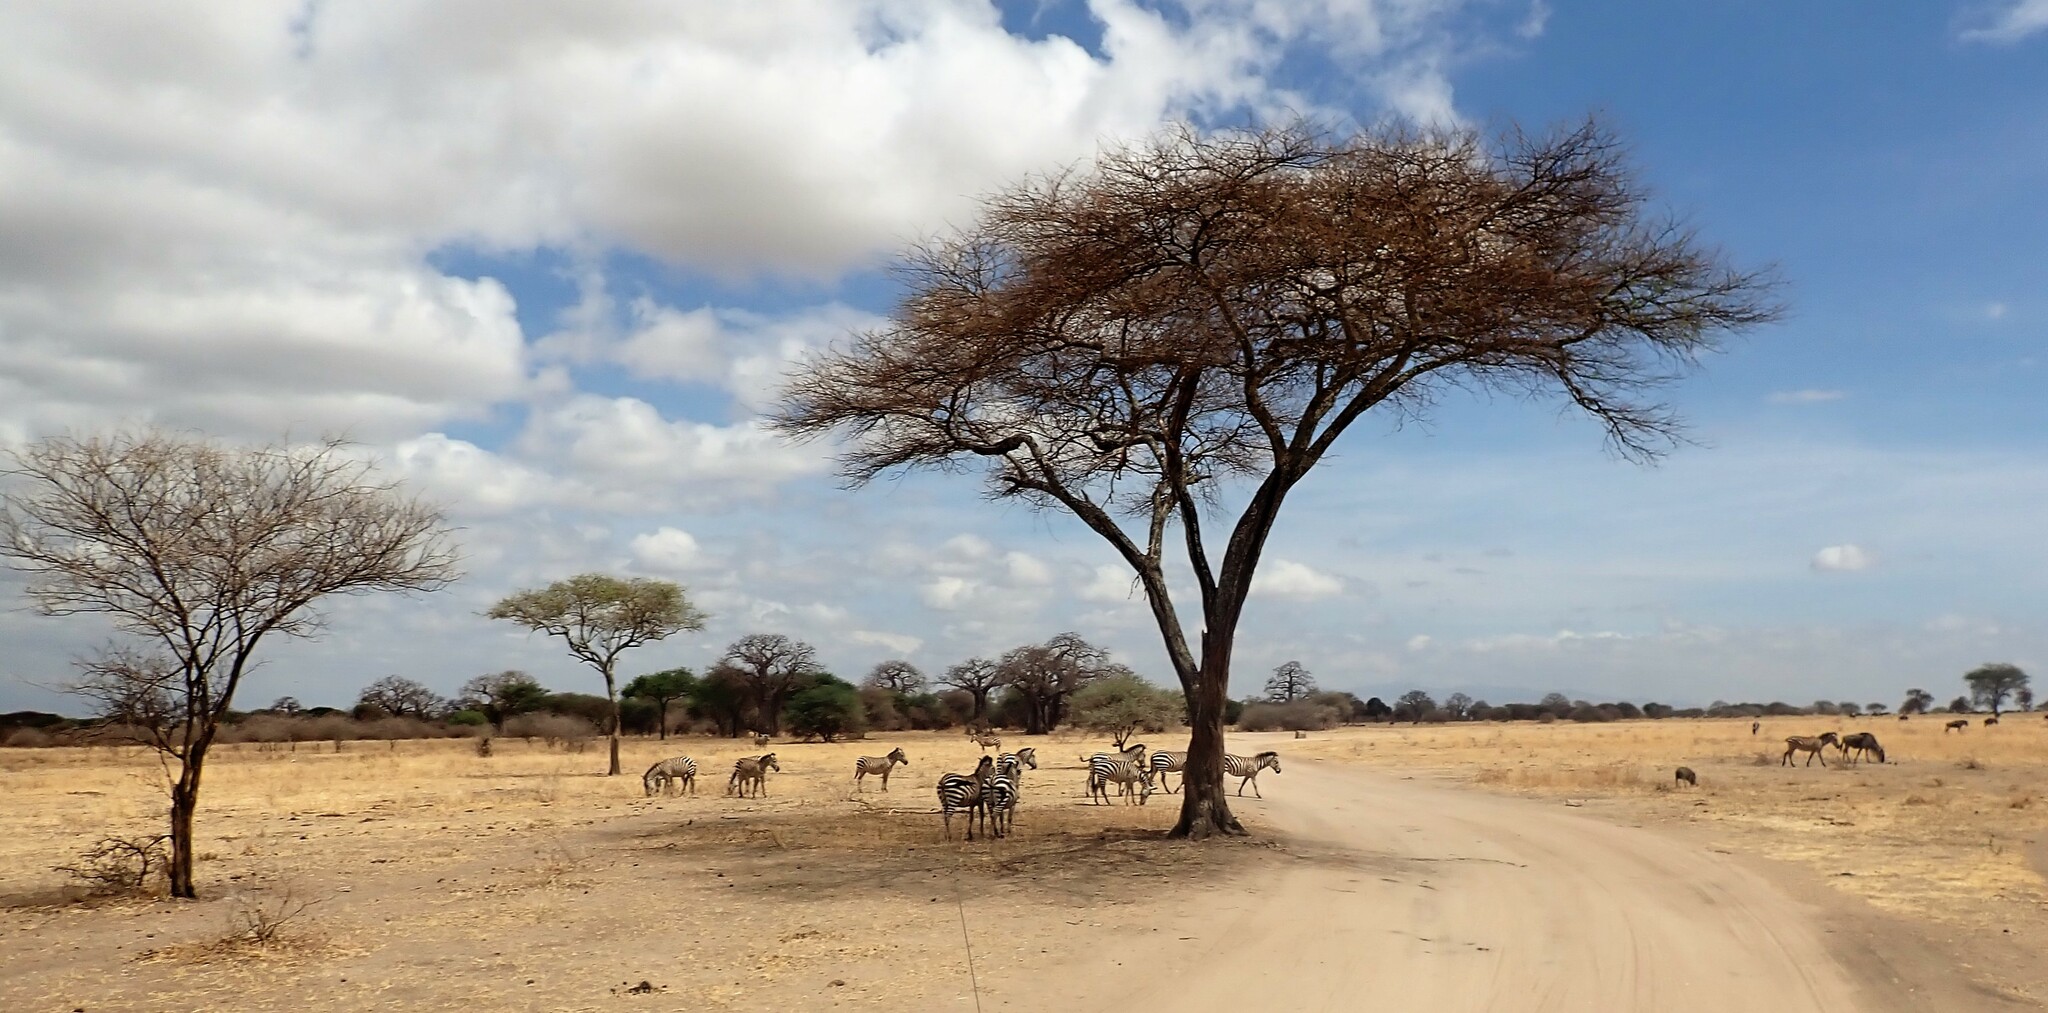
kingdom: Animalia
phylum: Chordata
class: Mammalia
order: Perissodactyla
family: Equidae
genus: Equus
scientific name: Equus quagga
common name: Plains zebra
